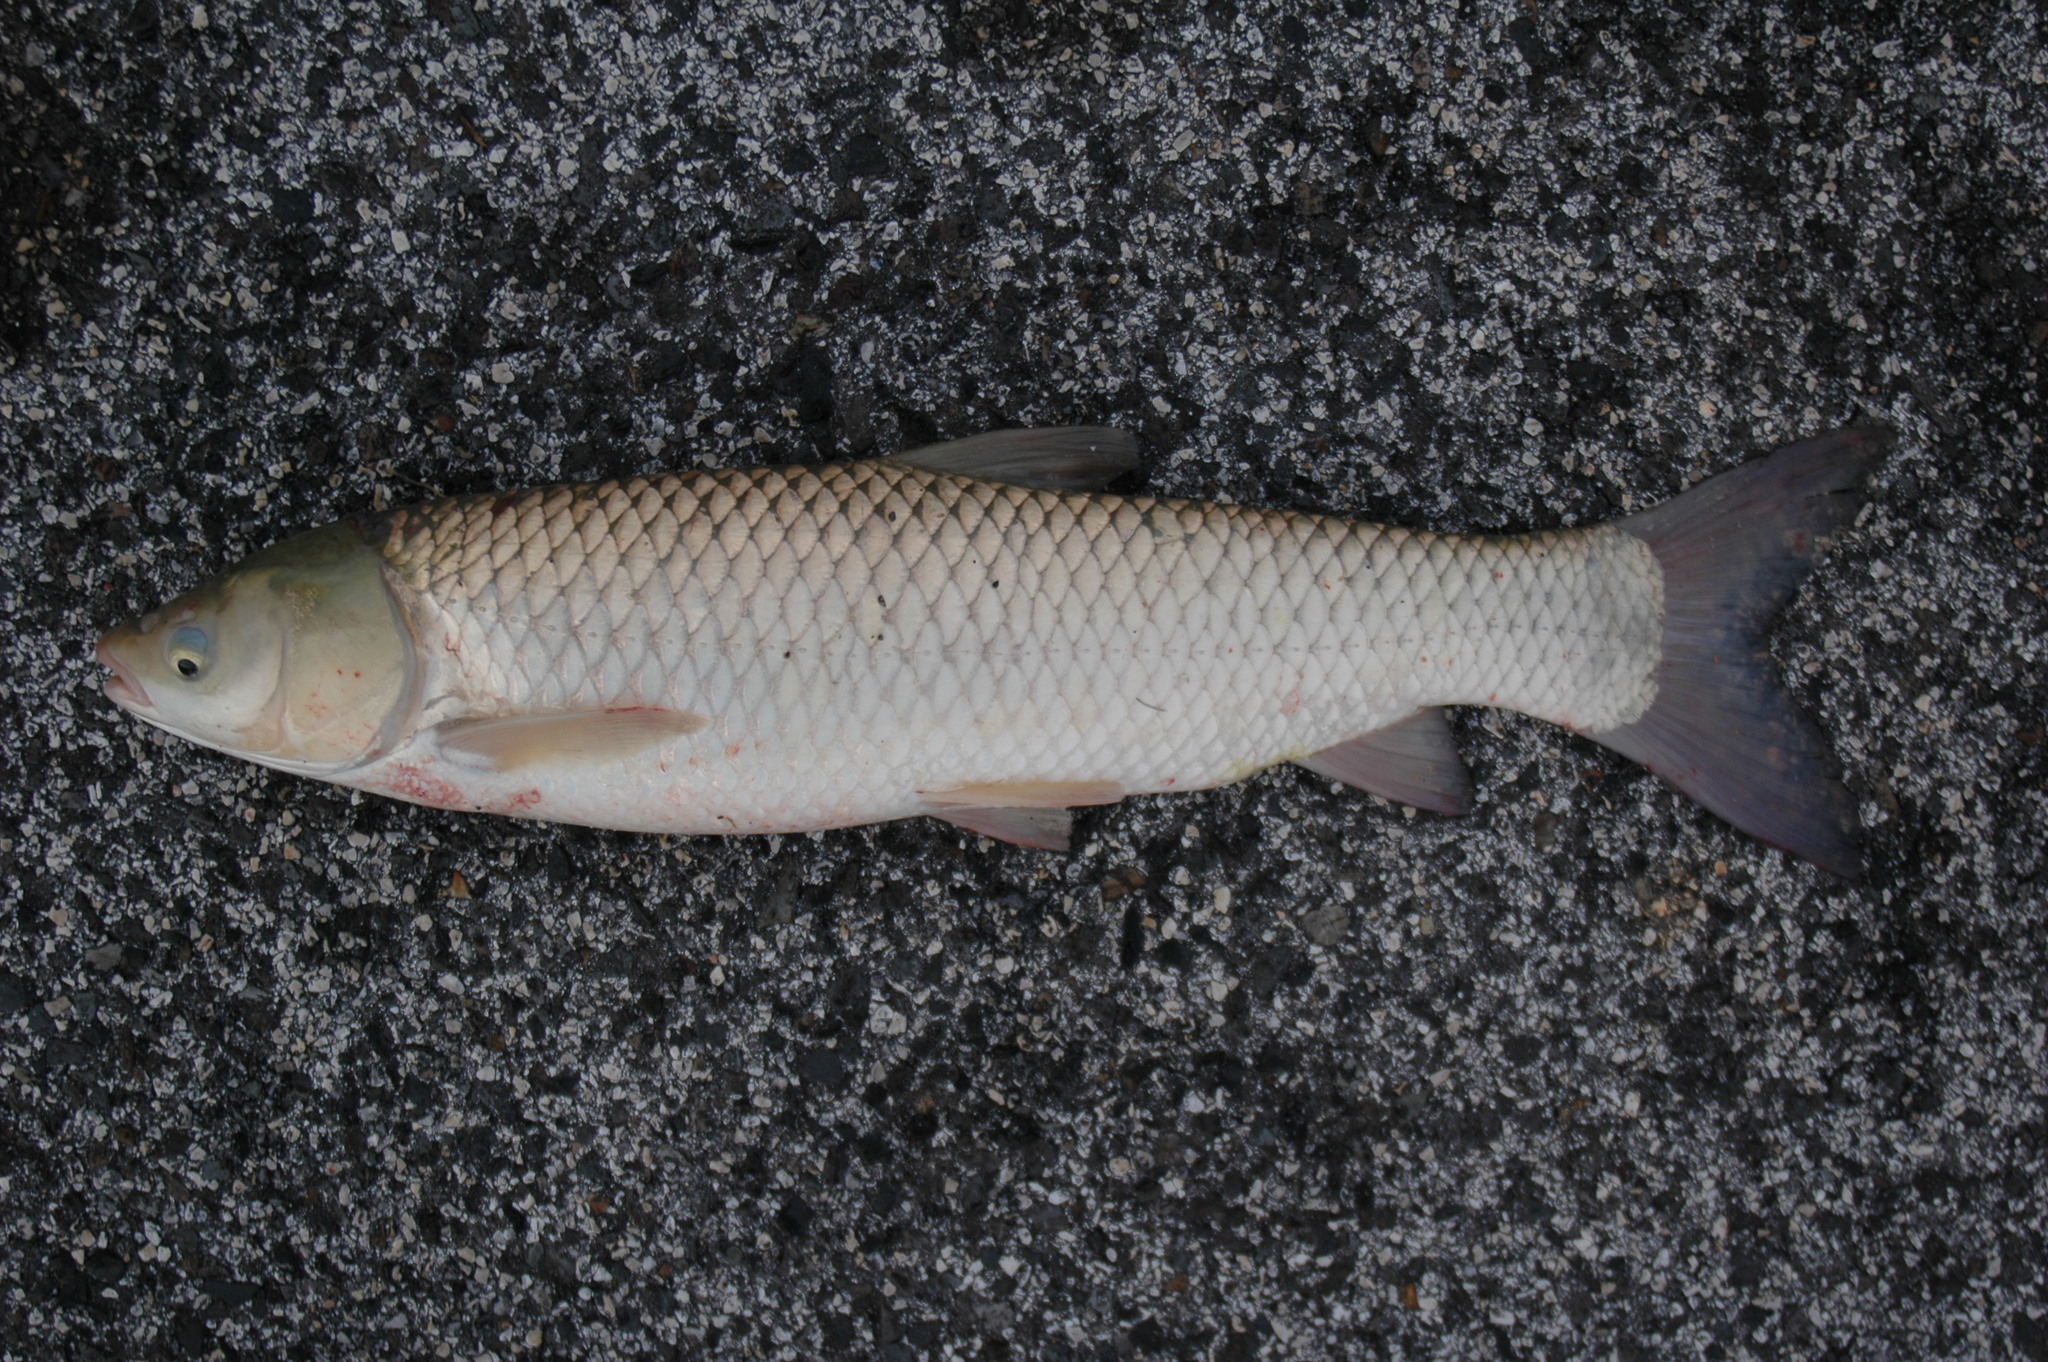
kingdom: Animalia
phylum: Chordata
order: Cypriniformes
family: Cyprinidae
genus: Ctenopharyngodon
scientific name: Ctenopharyngodon idella
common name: Grass carp
